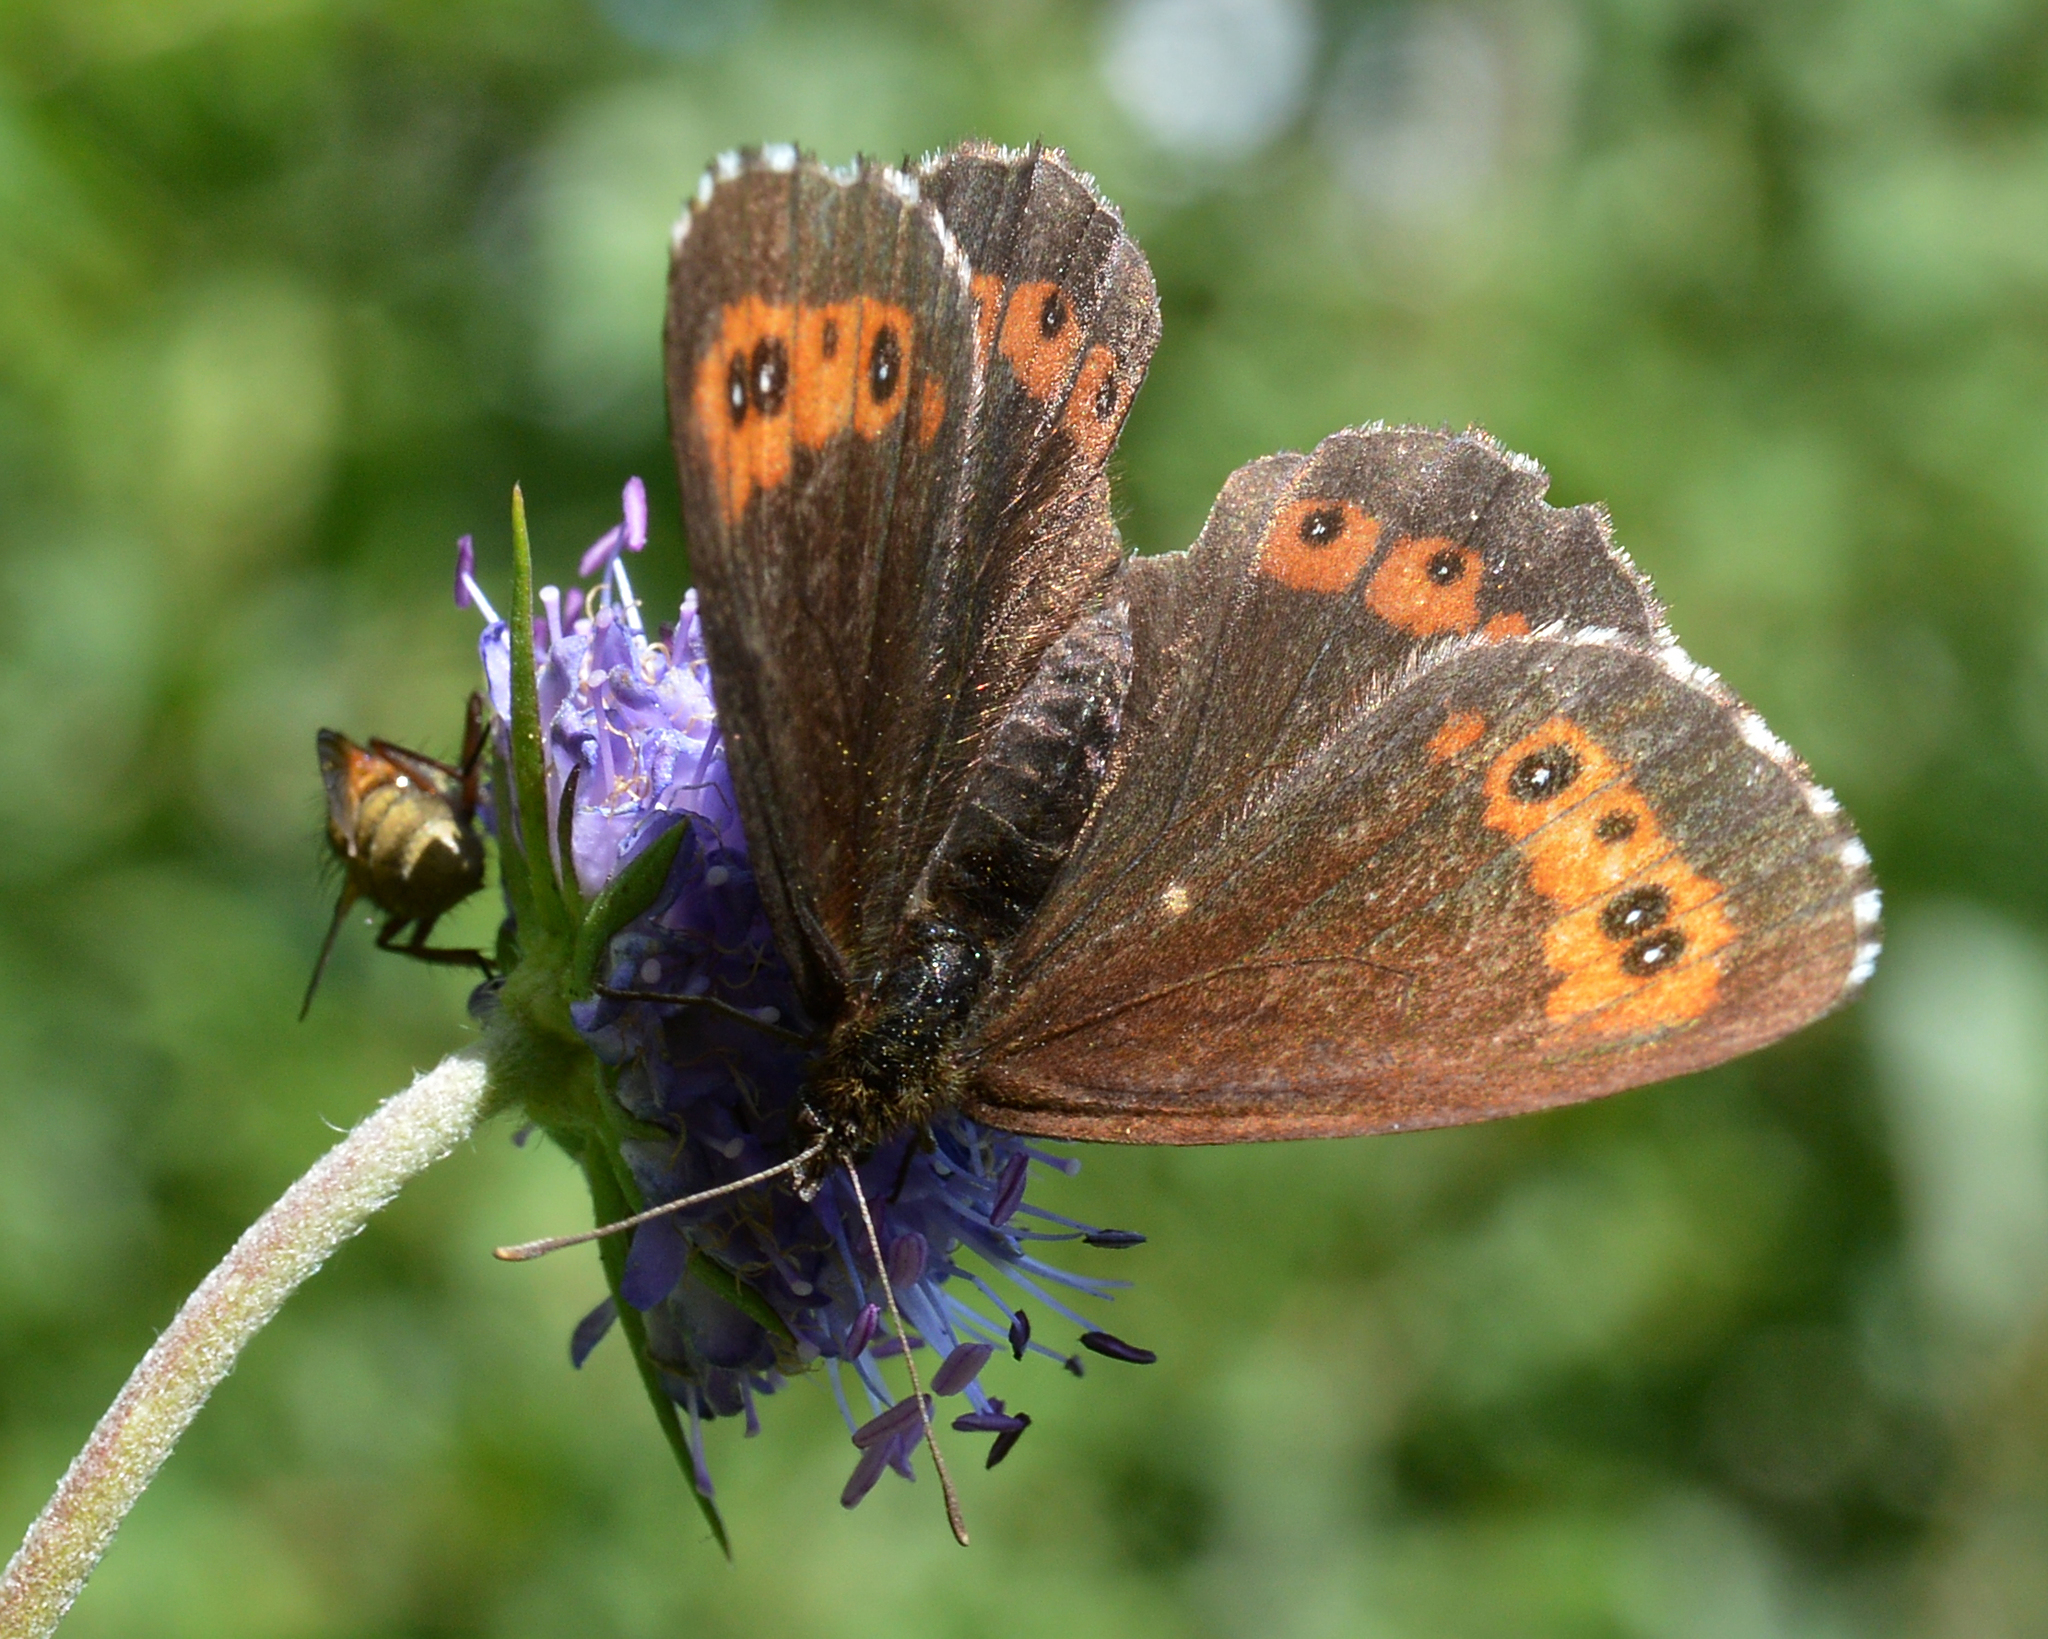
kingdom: Animalia
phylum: Arthropoda
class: Insecta
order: Lepidoptera
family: Nymphalidae
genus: Erebia
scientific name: Erebia ligea
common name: Arran brown
